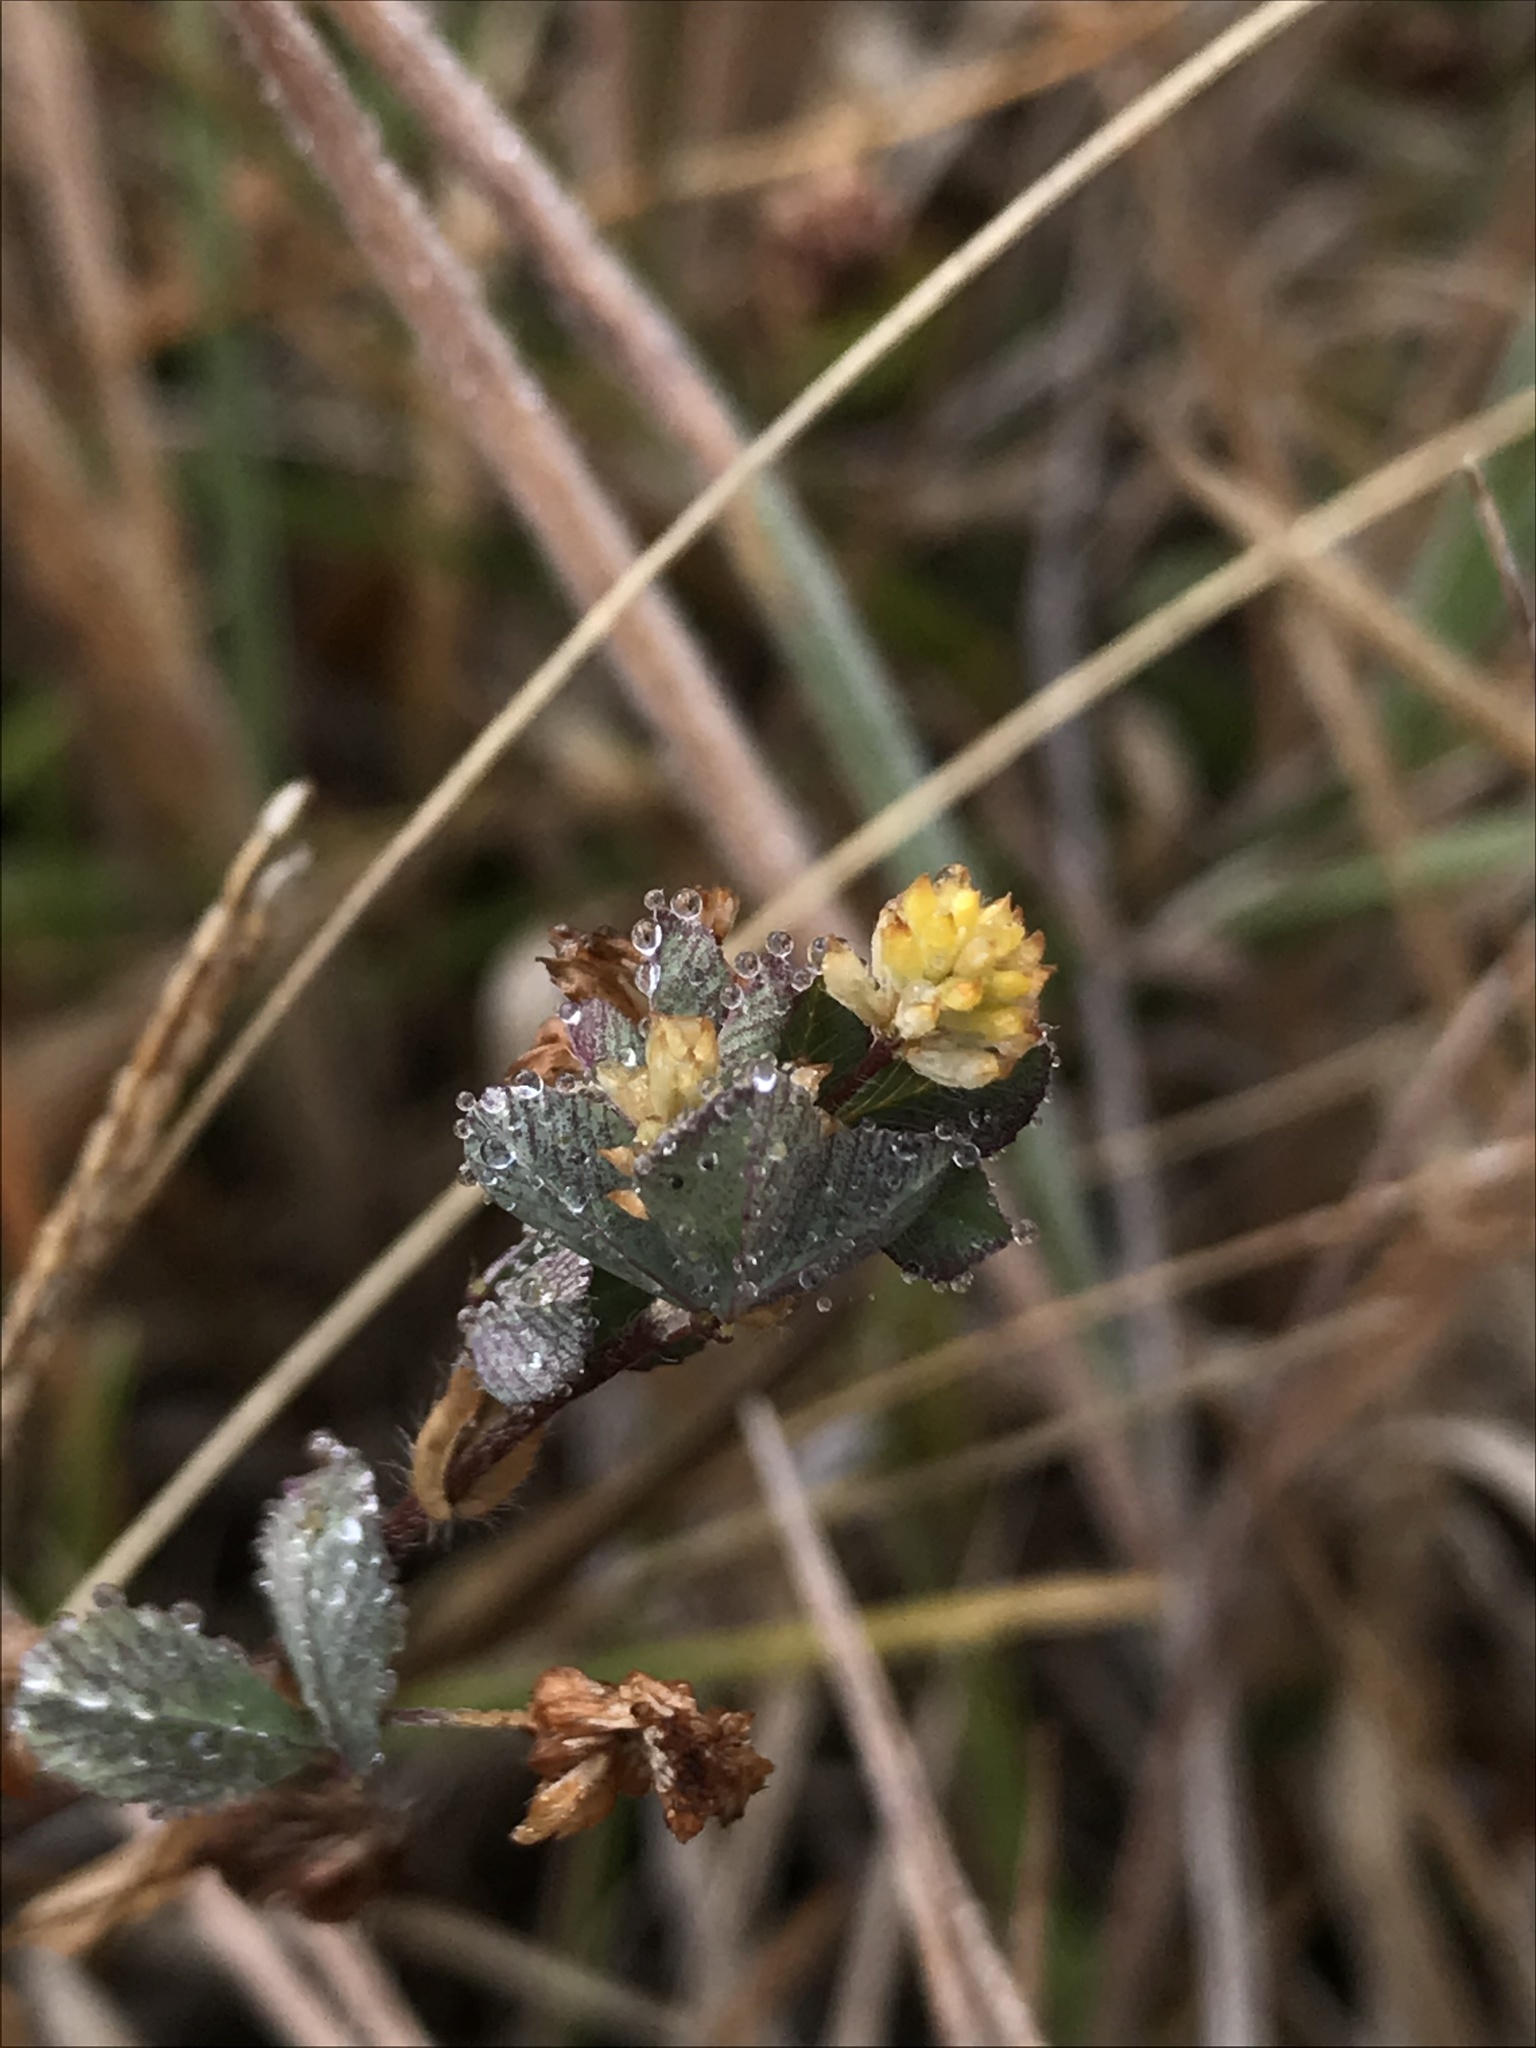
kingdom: Plantae
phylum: Tracheophyta
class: Magnoliopsida
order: Fabales
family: Fabaceae
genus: Trifolium
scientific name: Trifolium dubium
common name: Suckling clover
